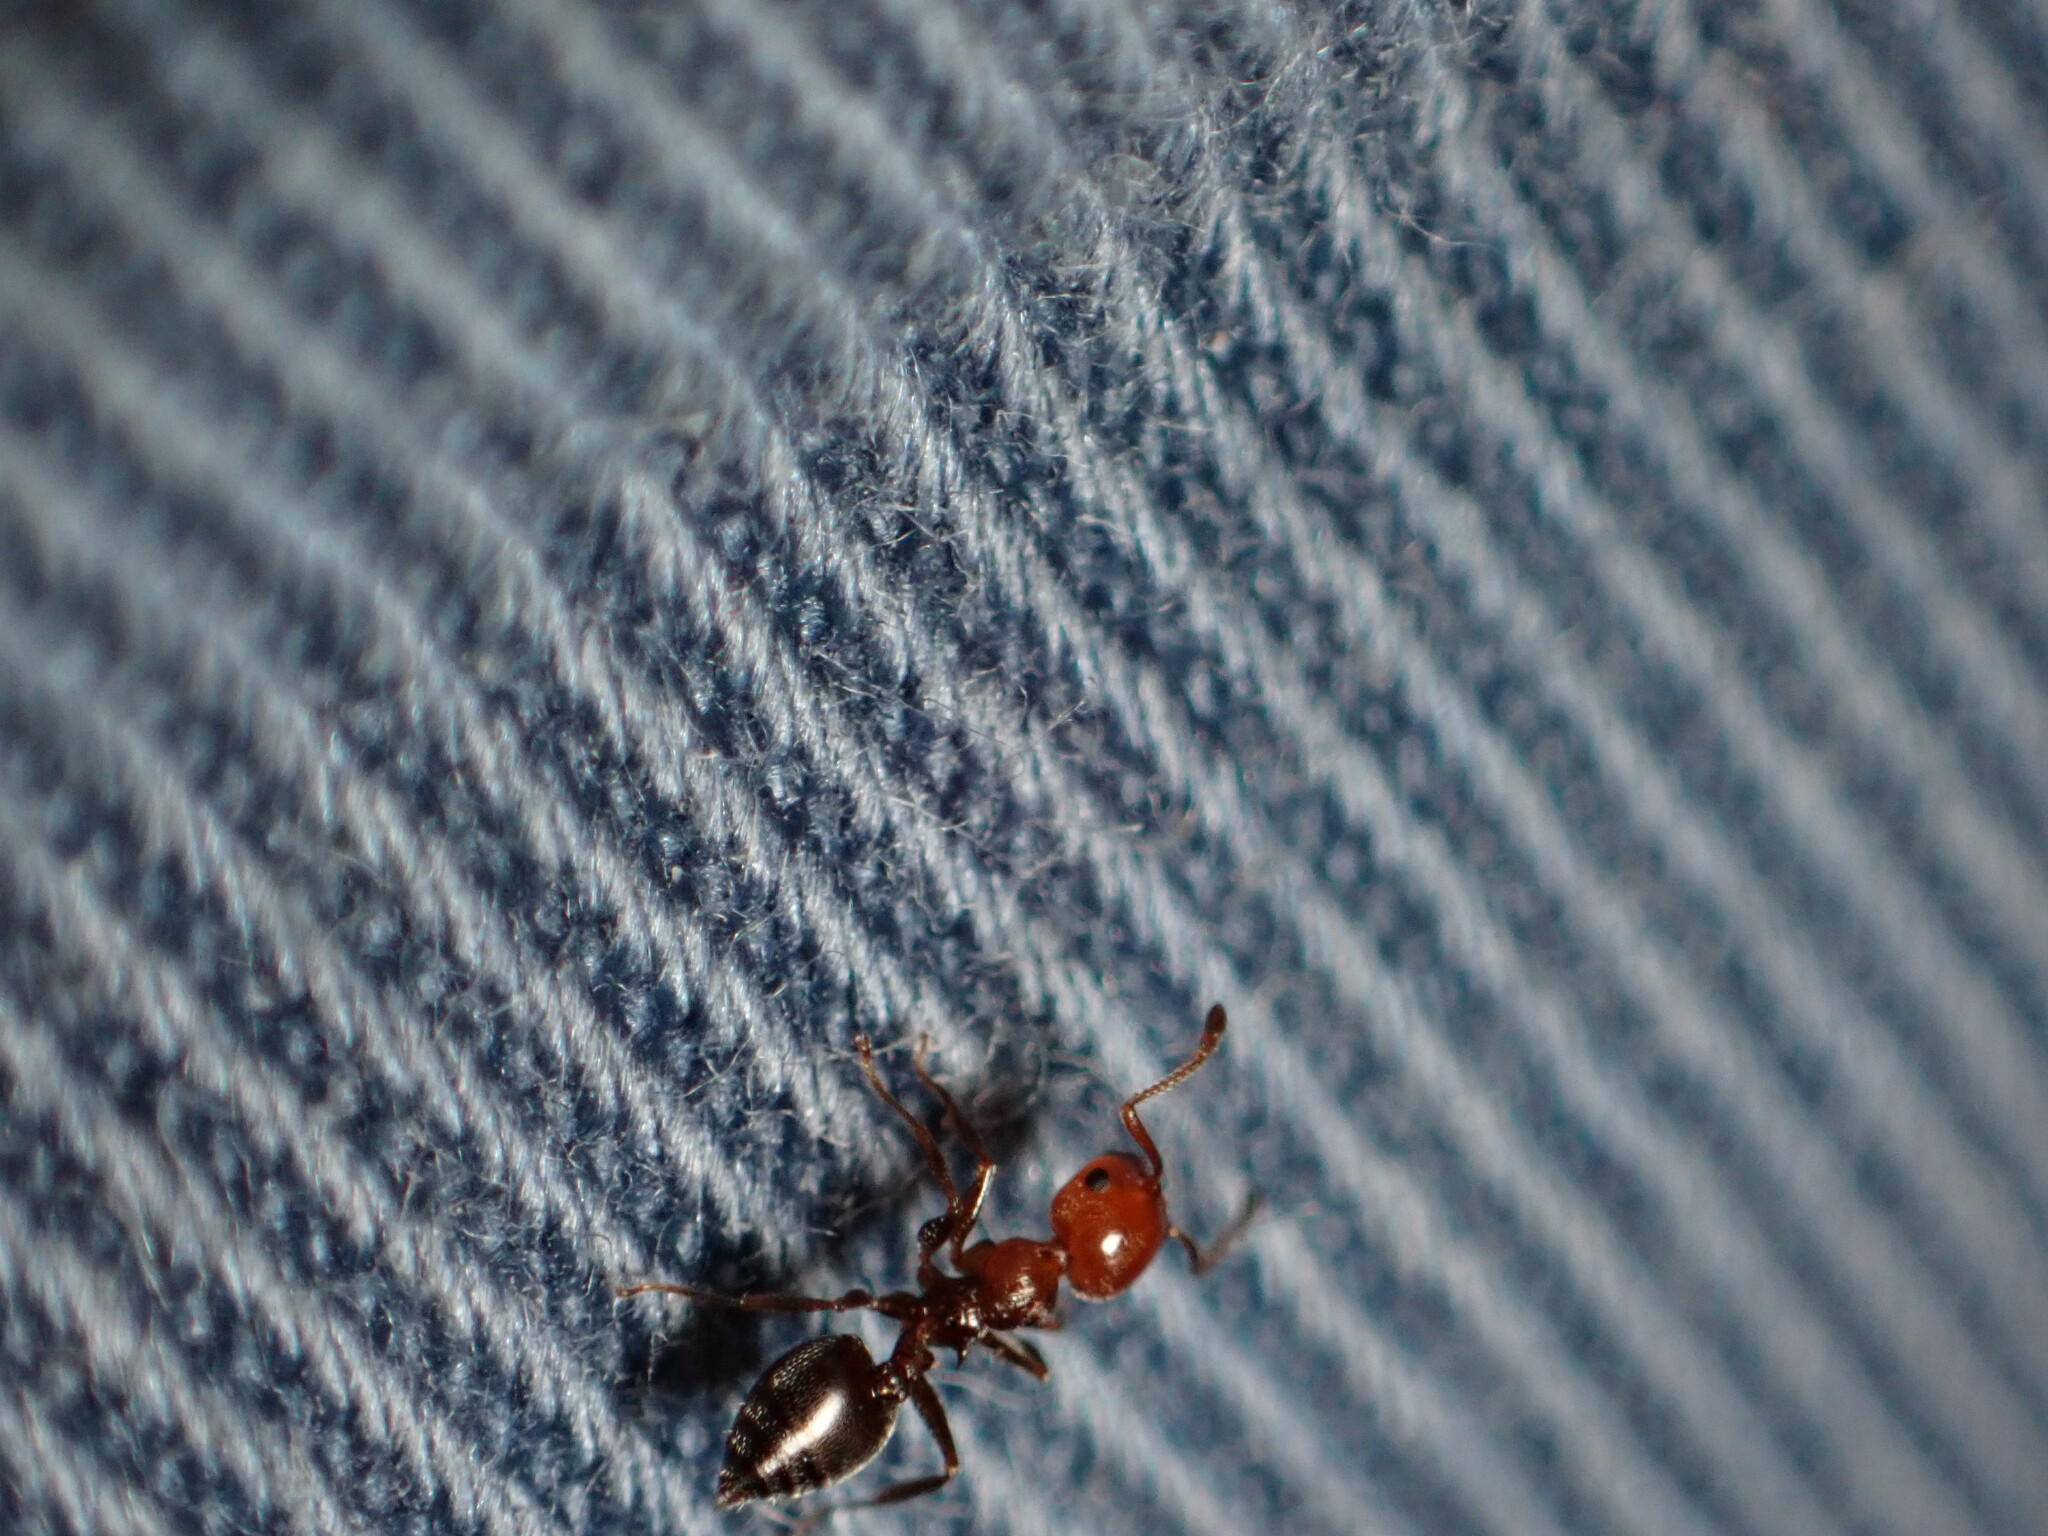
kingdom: Animalia
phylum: Arthropoda
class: Insecta
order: Hymenoptera
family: Formicidae
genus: Crematogaster
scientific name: Crematogaster scutellaris
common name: Fourmi du liège
